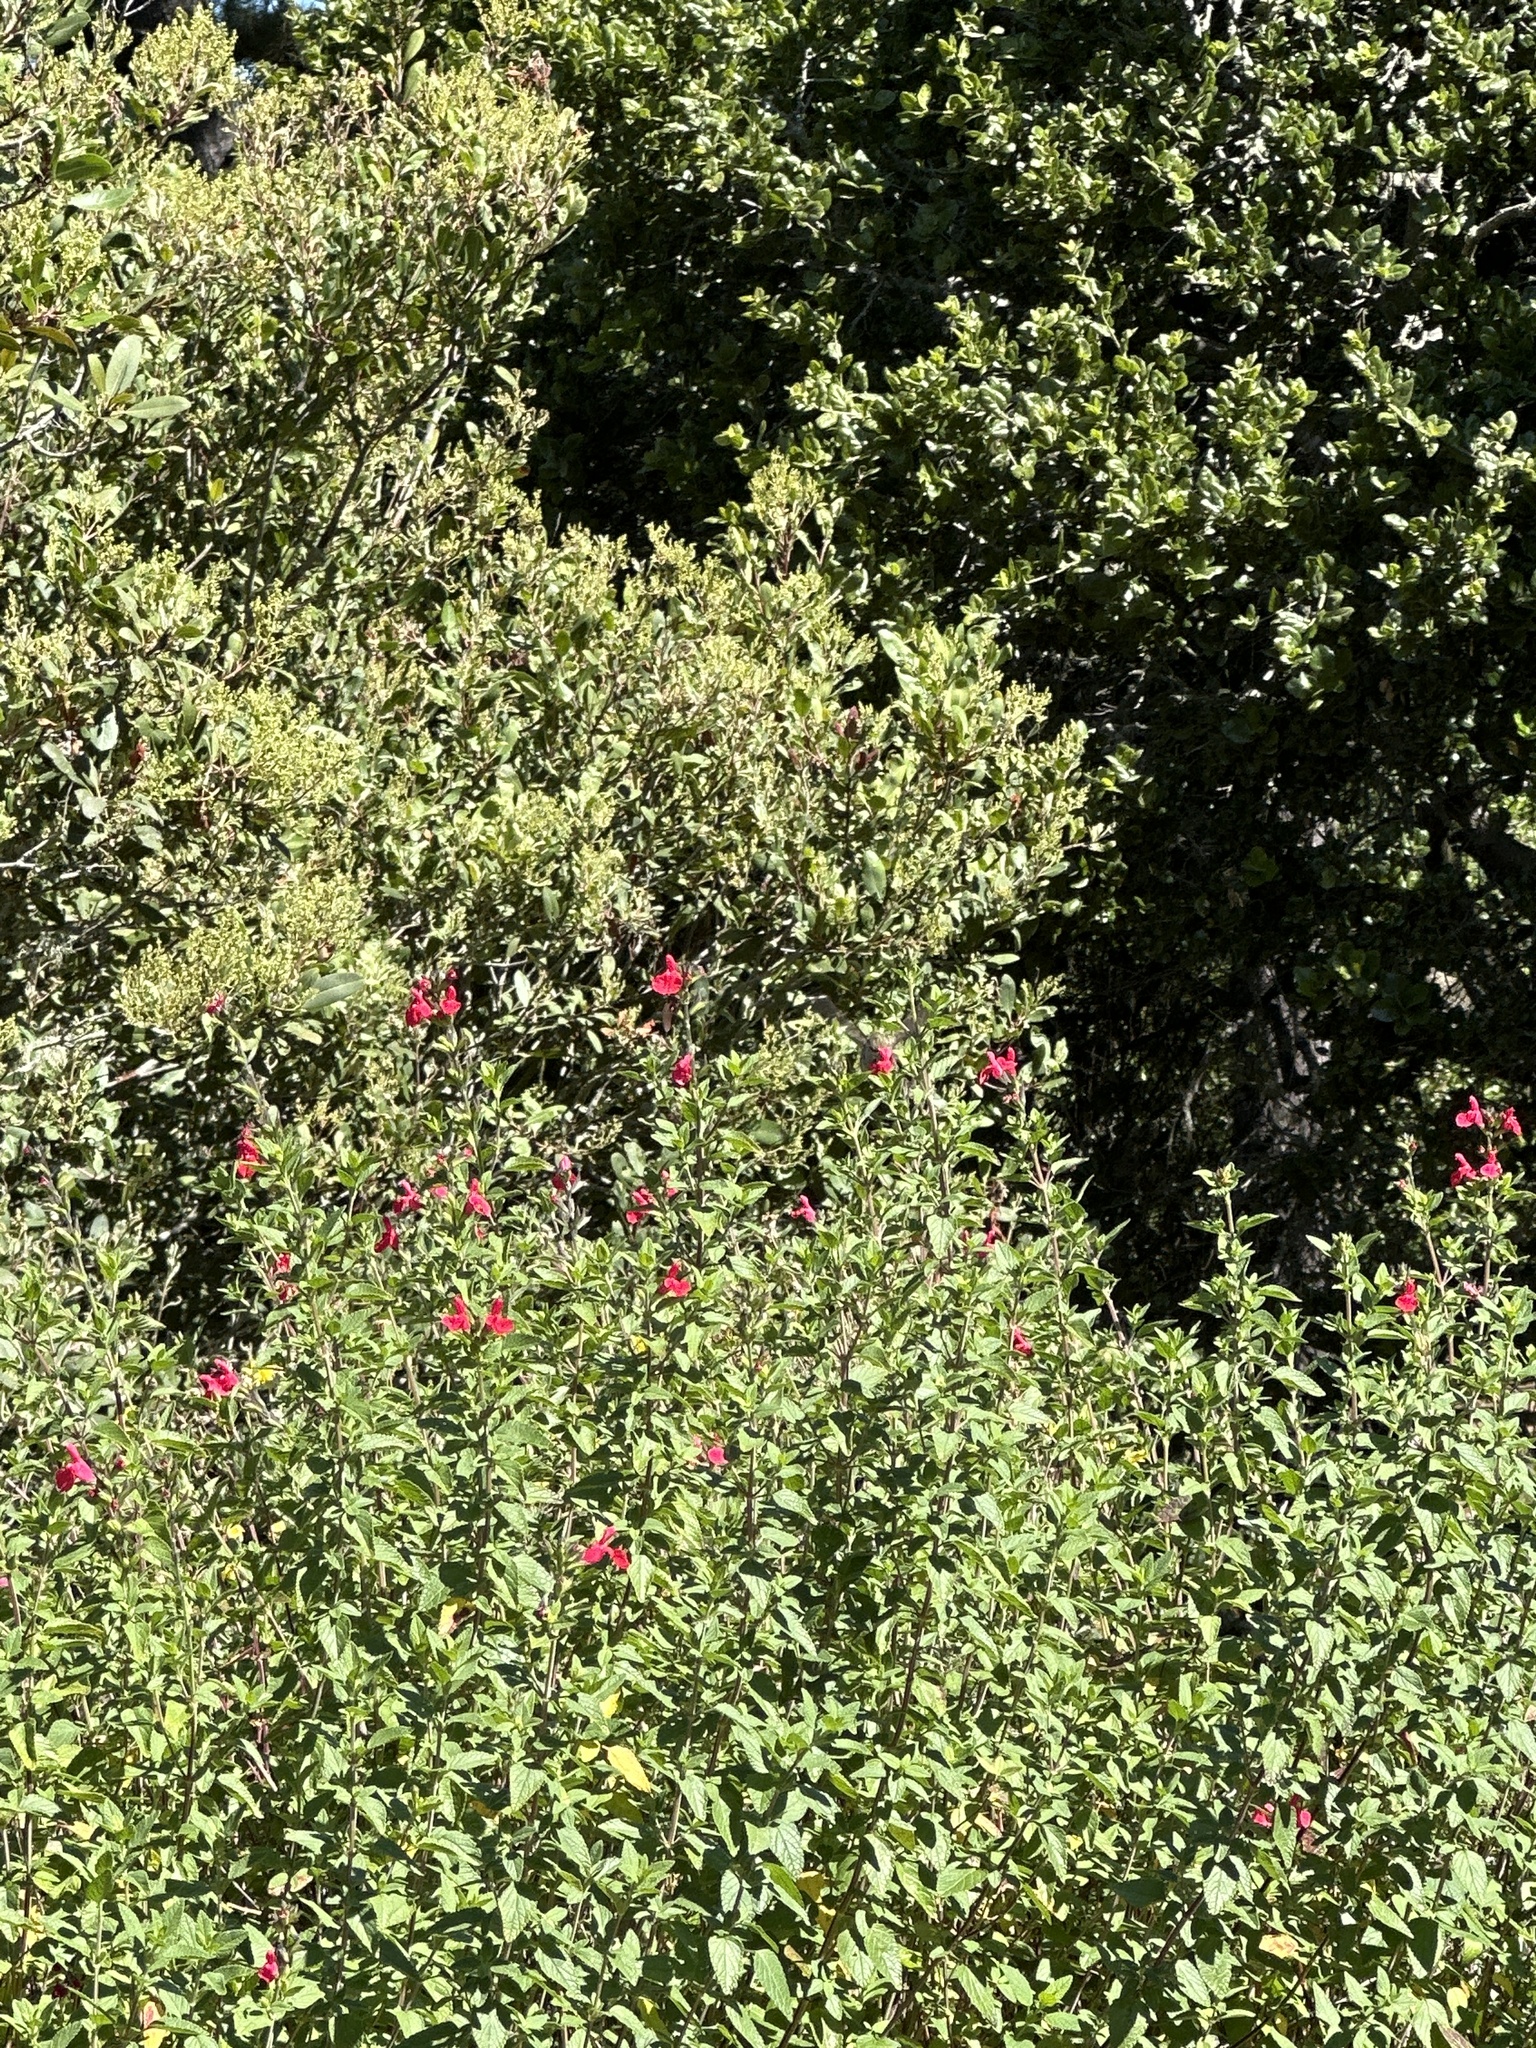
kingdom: Animalia
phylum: Chordata
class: Aves
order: Apodiformes
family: Trochilidae
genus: Calypte
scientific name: Calypte anna
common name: Anna's hummingbird
